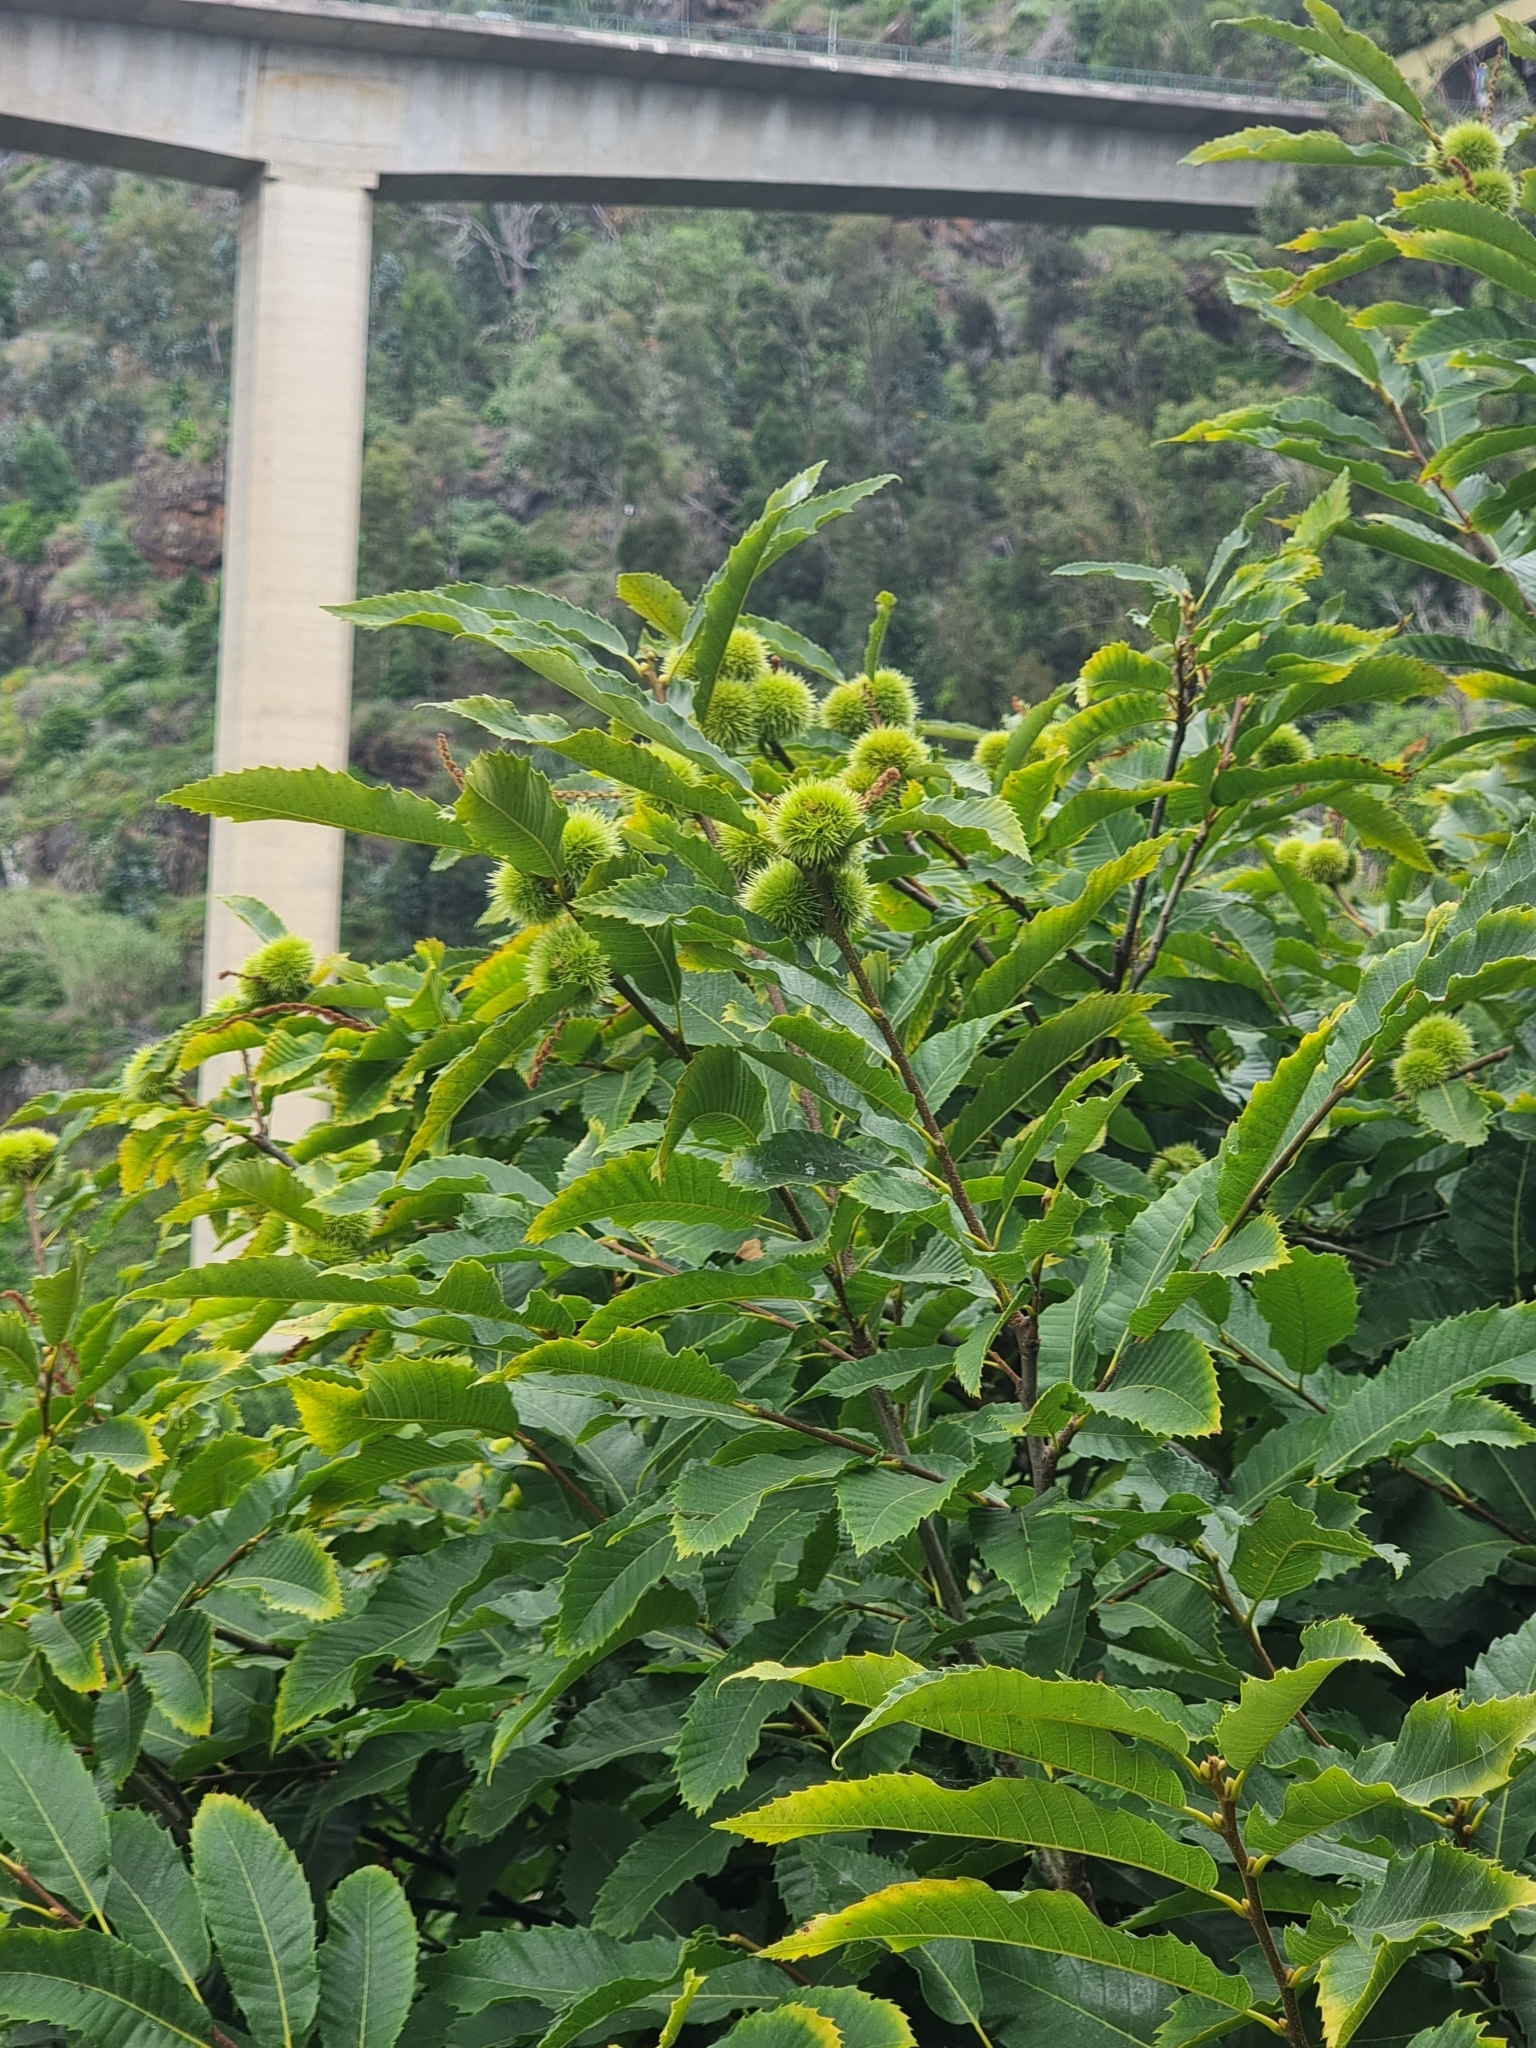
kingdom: Plantae
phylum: Tracheophyta
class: Magnoliopsida
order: Fagales
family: Fagaceae
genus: Castanea
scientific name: Castanea sativa
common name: Sweet chestnut
